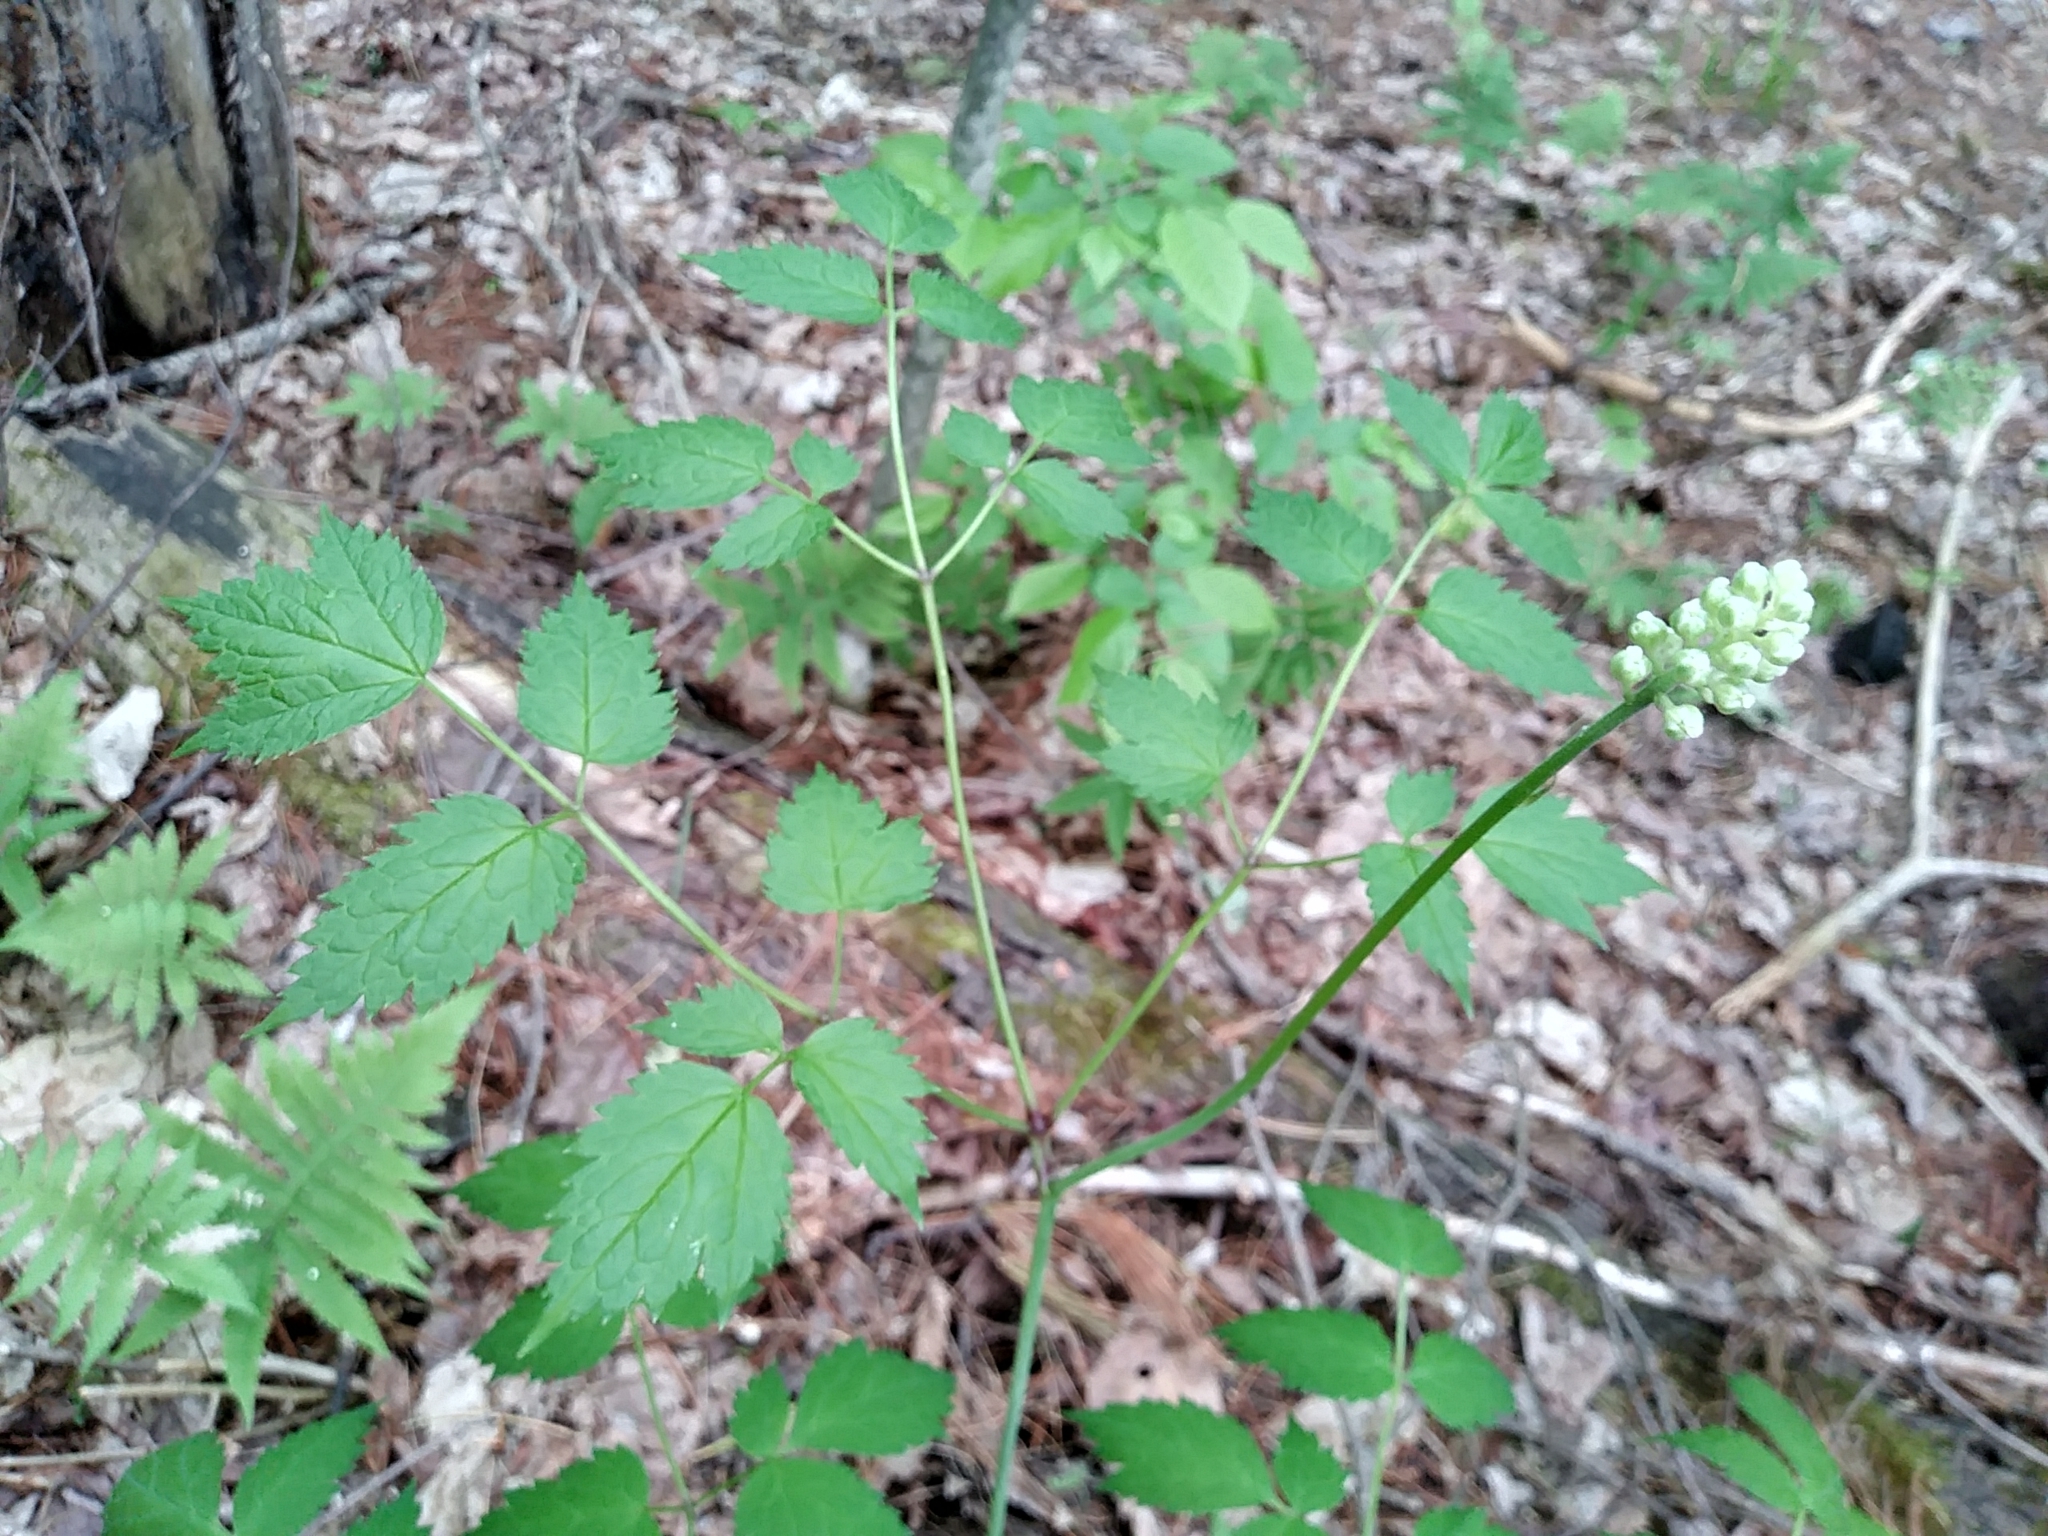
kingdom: Plantae
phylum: Tracheophyta
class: Magnoliopsida
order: Ranunculales
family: Ranunculaceae
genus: Actaea
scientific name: Actaea pachypoda
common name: Doll's-eyes
